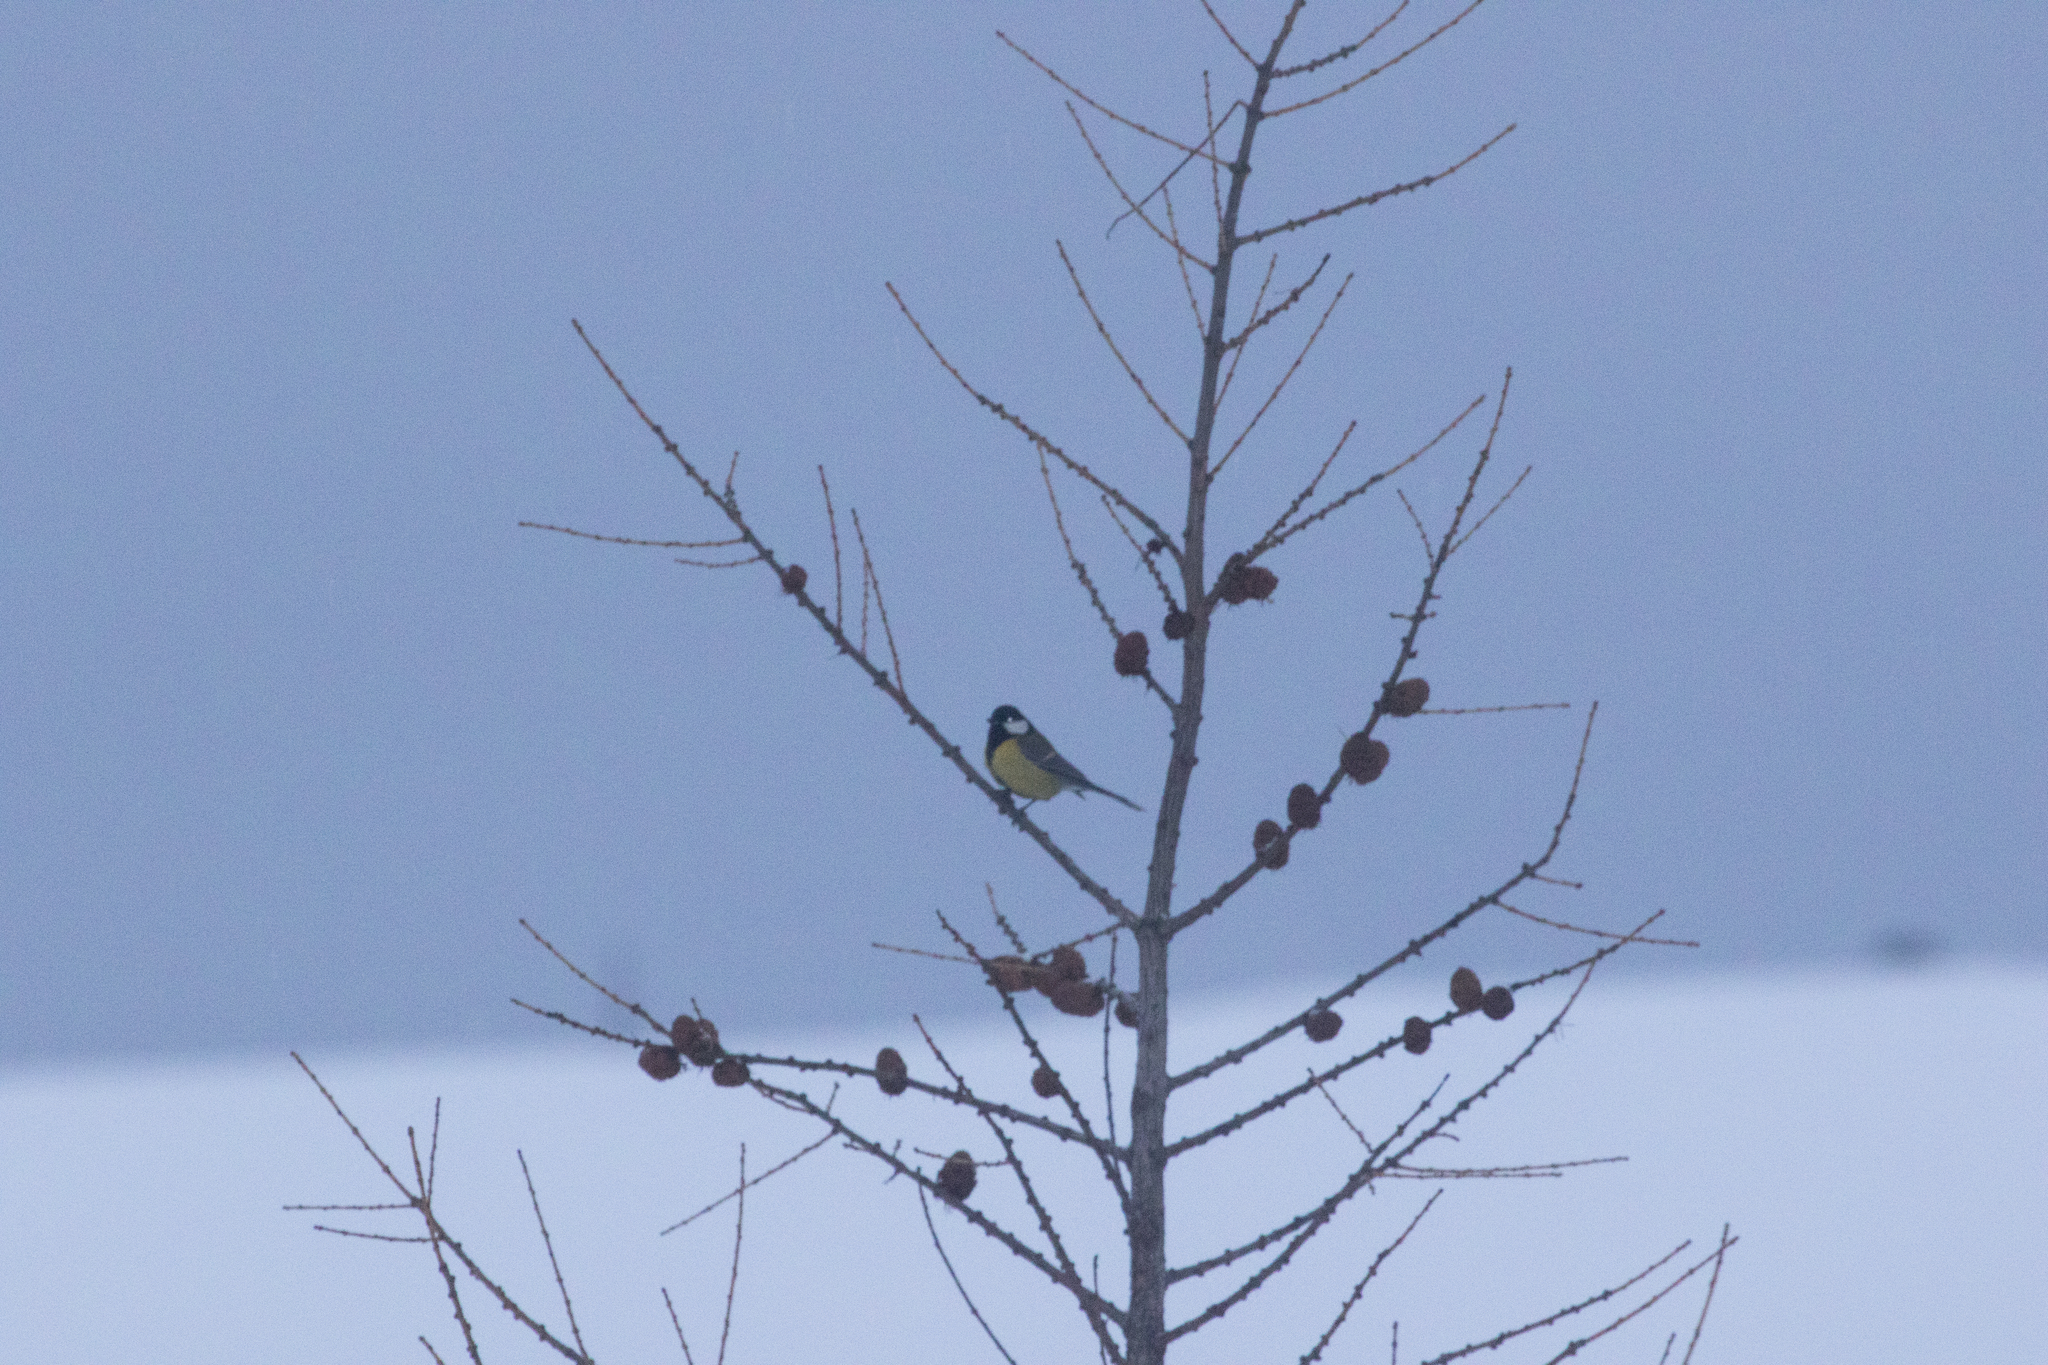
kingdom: Animalia
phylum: Chordata
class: Aves
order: Passeriformes
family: Paridae
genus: Parus
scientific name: Parus major
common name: Great tit
